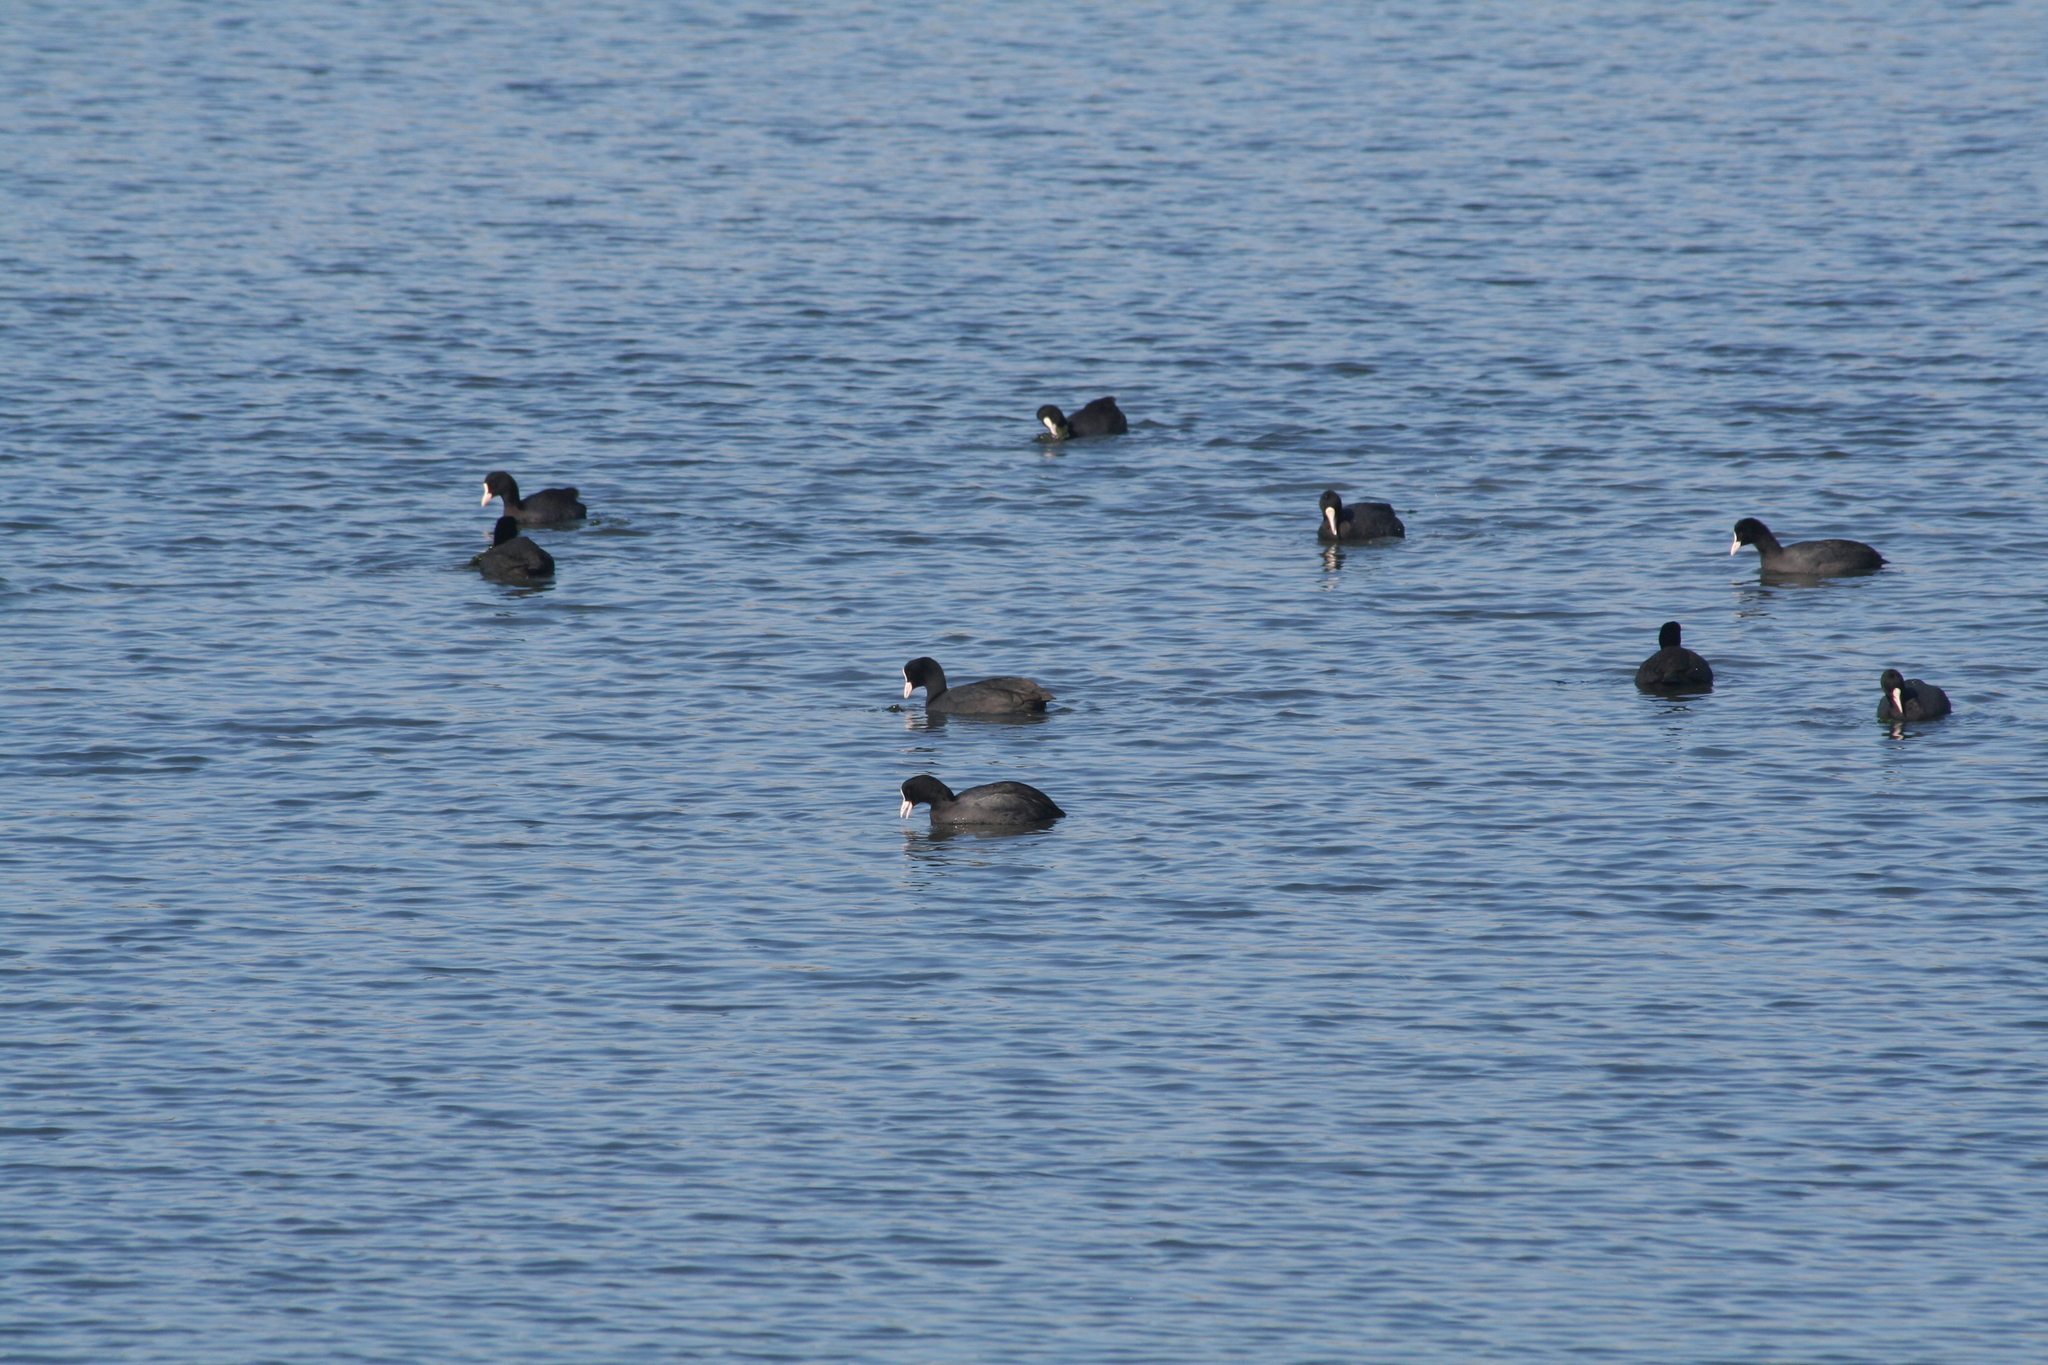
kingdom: Animalia
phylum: Chordata
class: Aves
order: Gruiformes
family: Rallidae
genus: Fulica
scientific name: Fulica atra
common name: Eurasian coot
